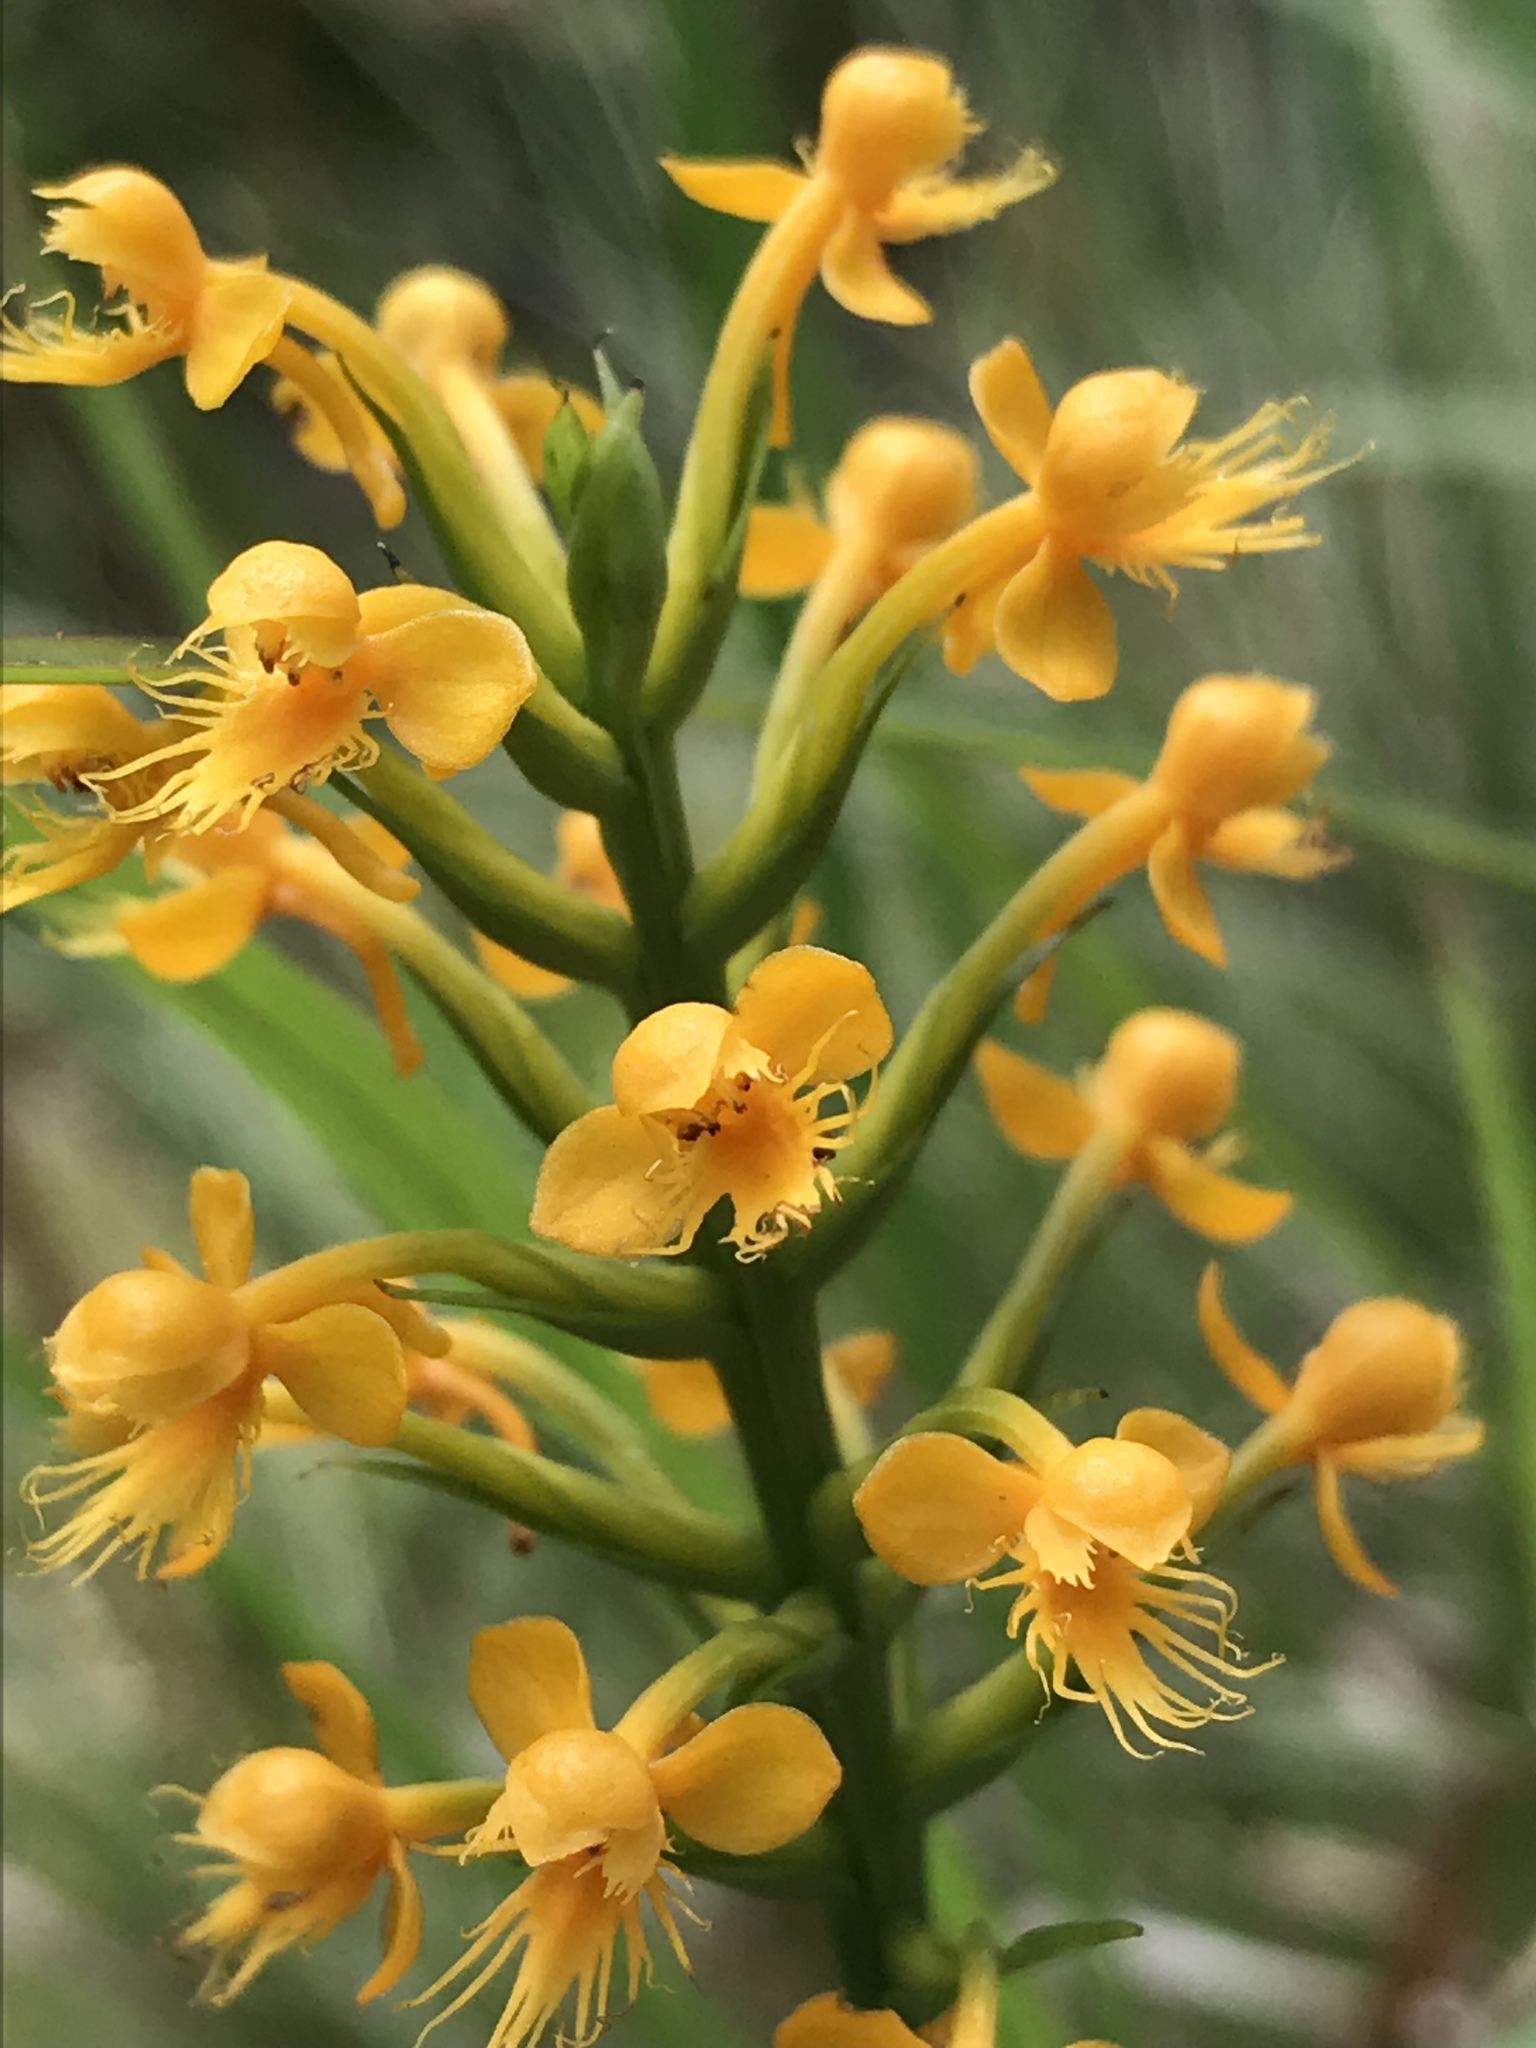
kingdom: Plantae
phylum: Tracheophyta
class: Liliopsida
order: Asparagales
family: Orchidaceae
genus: Platanthera
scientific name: Platanthera cristata
